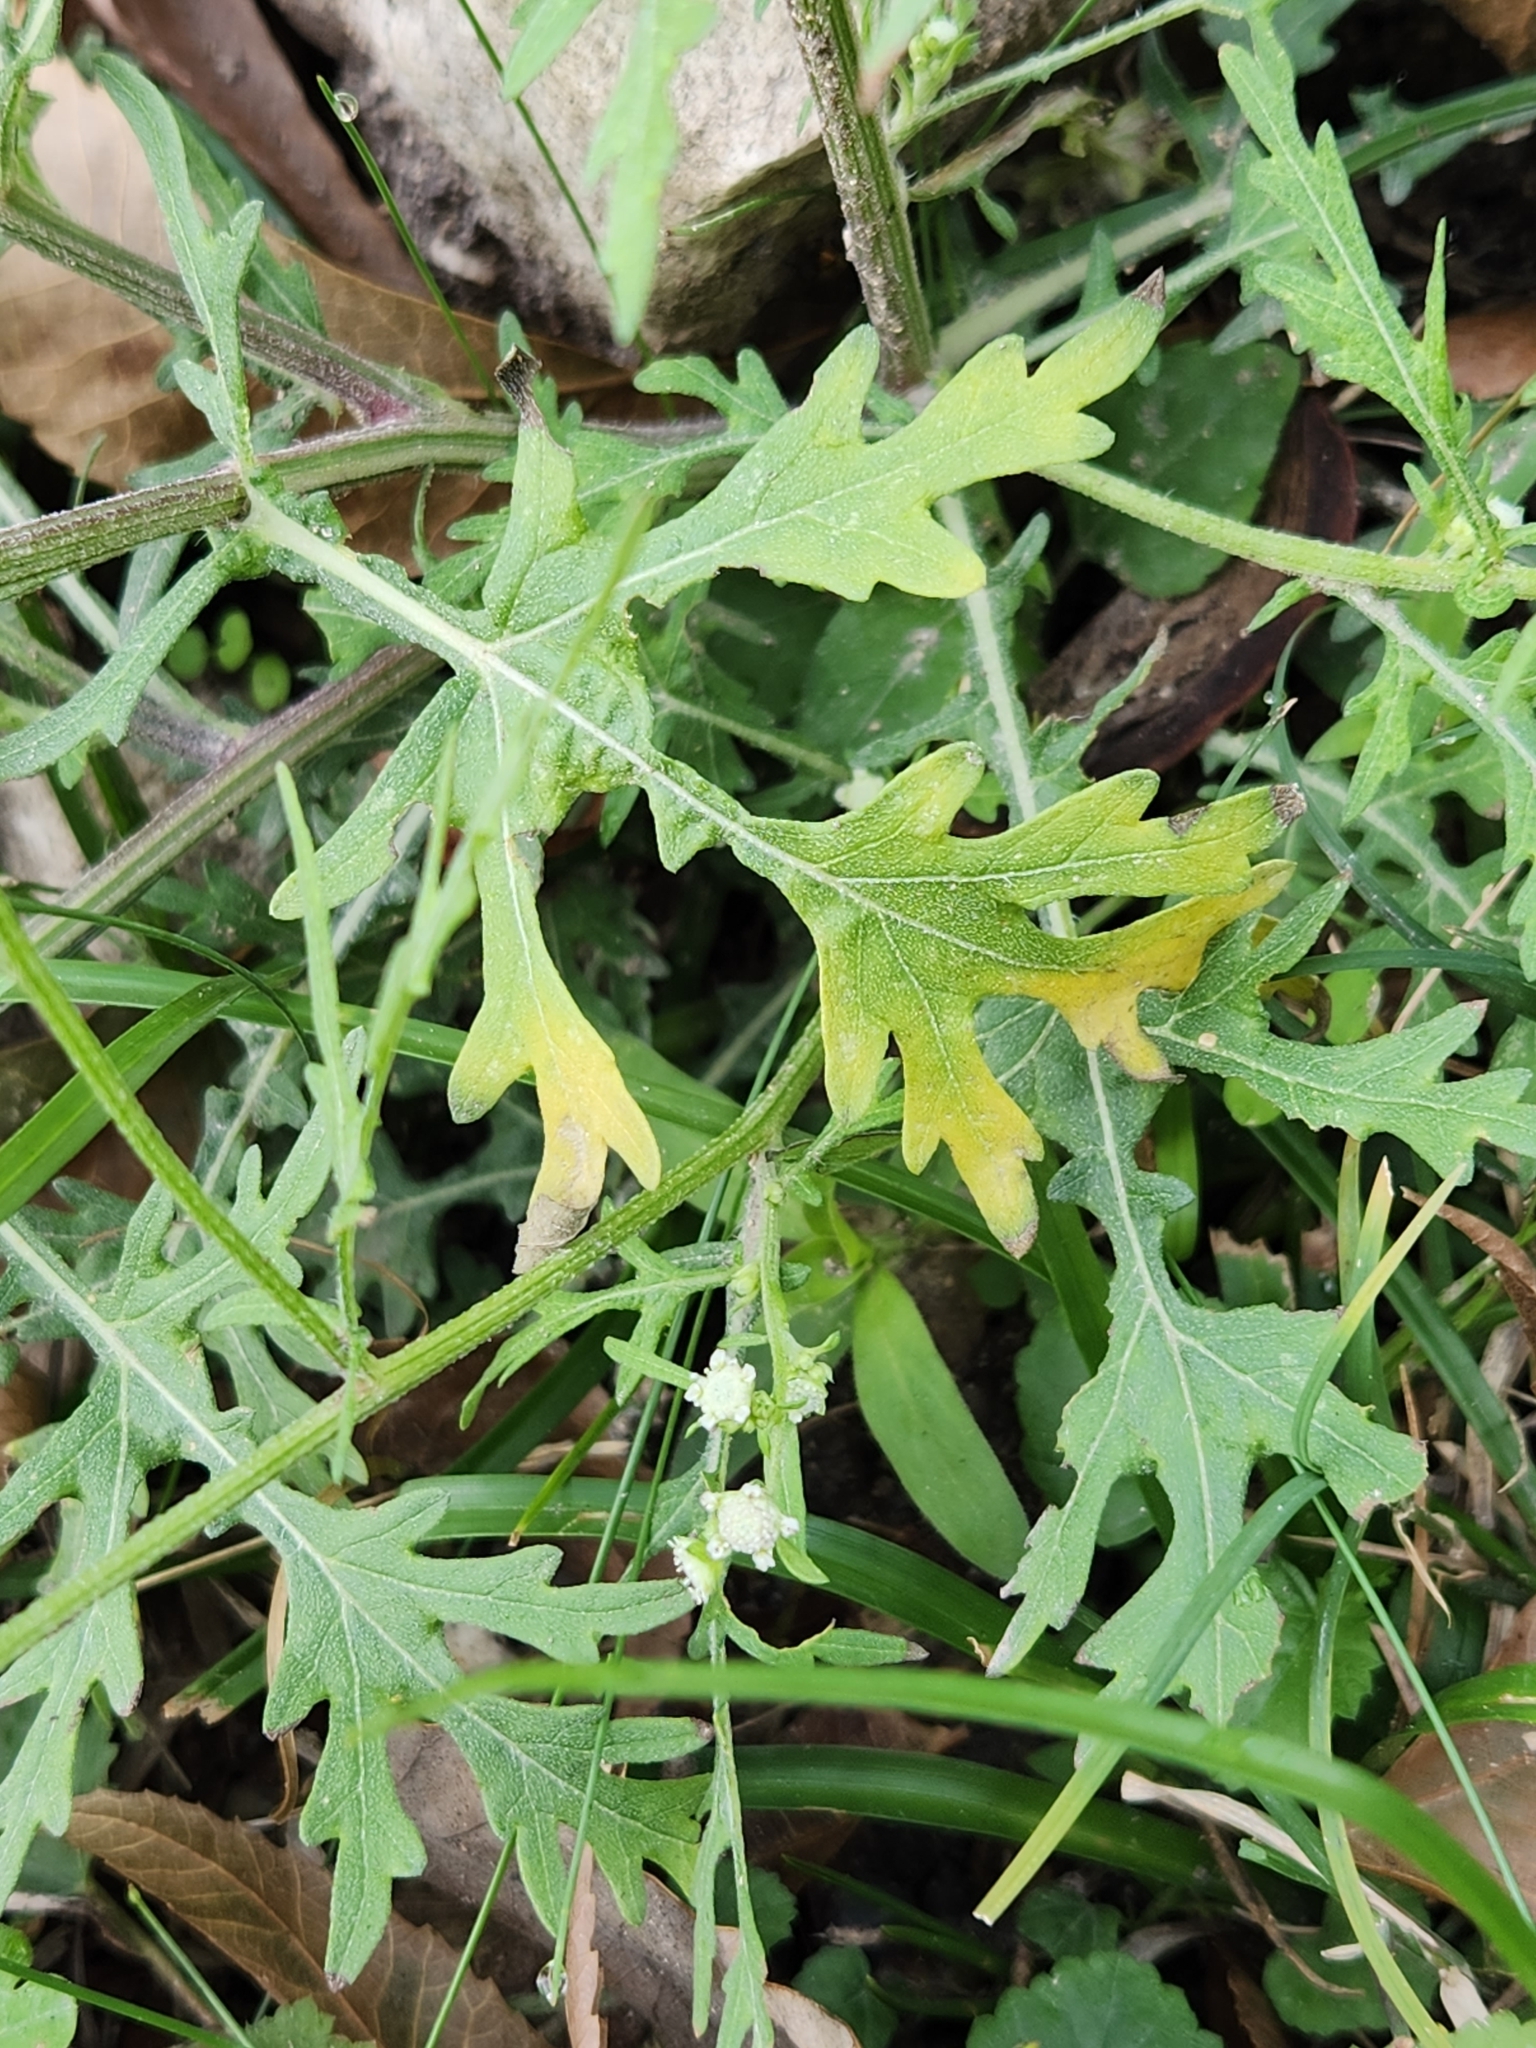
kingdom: Plantae
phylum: Tracheophyta
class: Magnoliopsida
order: Asterales
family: Asteraceae
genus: Parthenium
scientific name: Parthenium hysterophorus
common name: Santa maria feverfew
